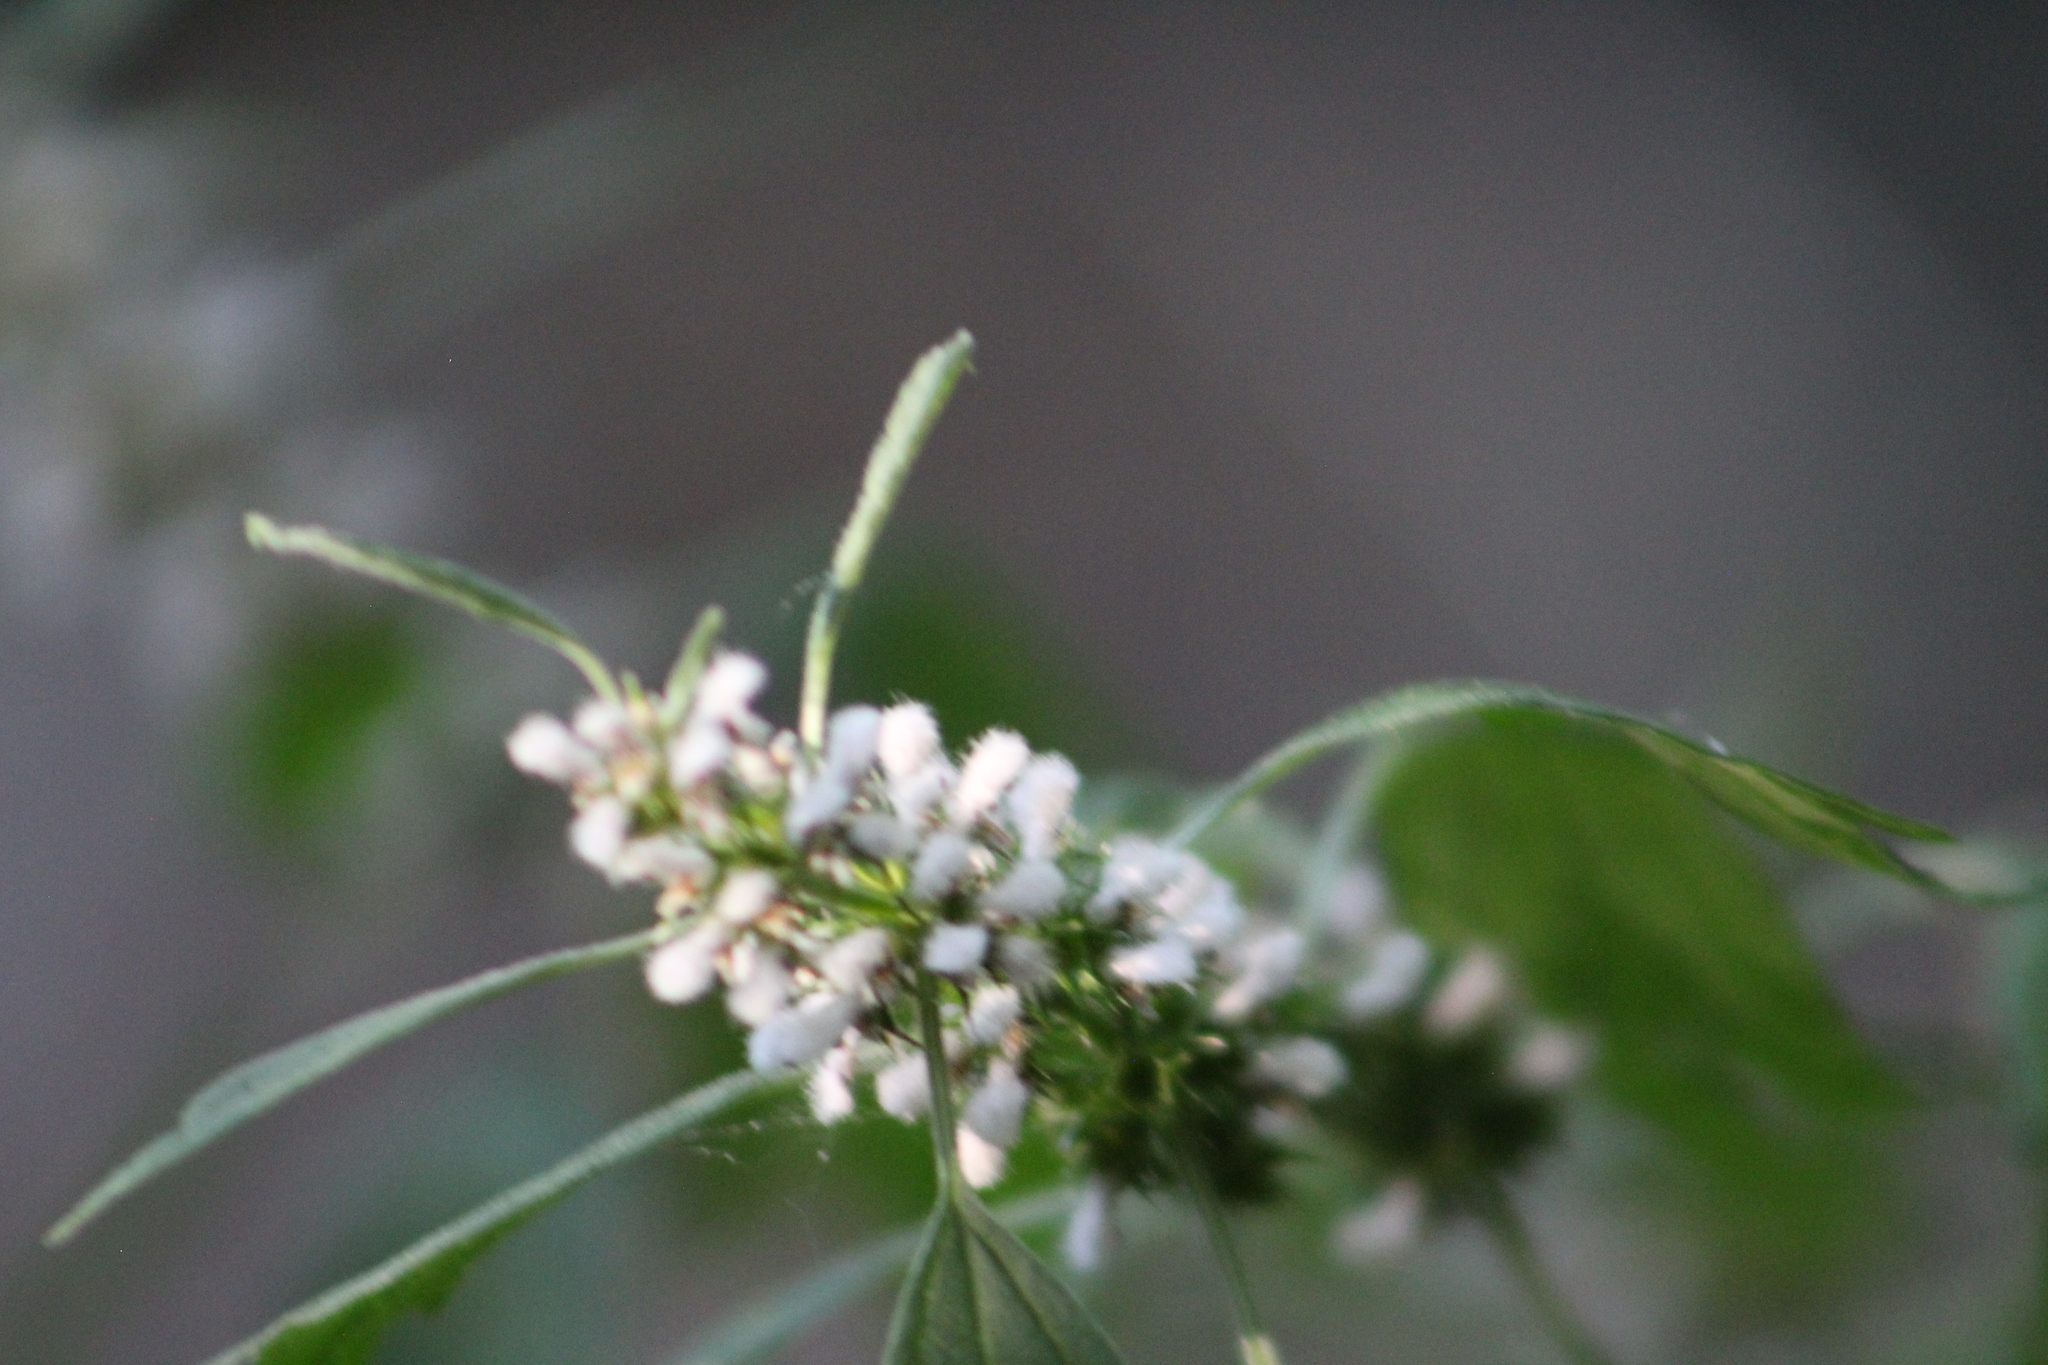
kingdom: Plantae
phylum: Tracheophyta
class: Magnoliopsida
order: Lamiales
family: Lamiaceae
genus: Leonurus
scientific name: Leonurus cardiaca
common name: Motherwort
